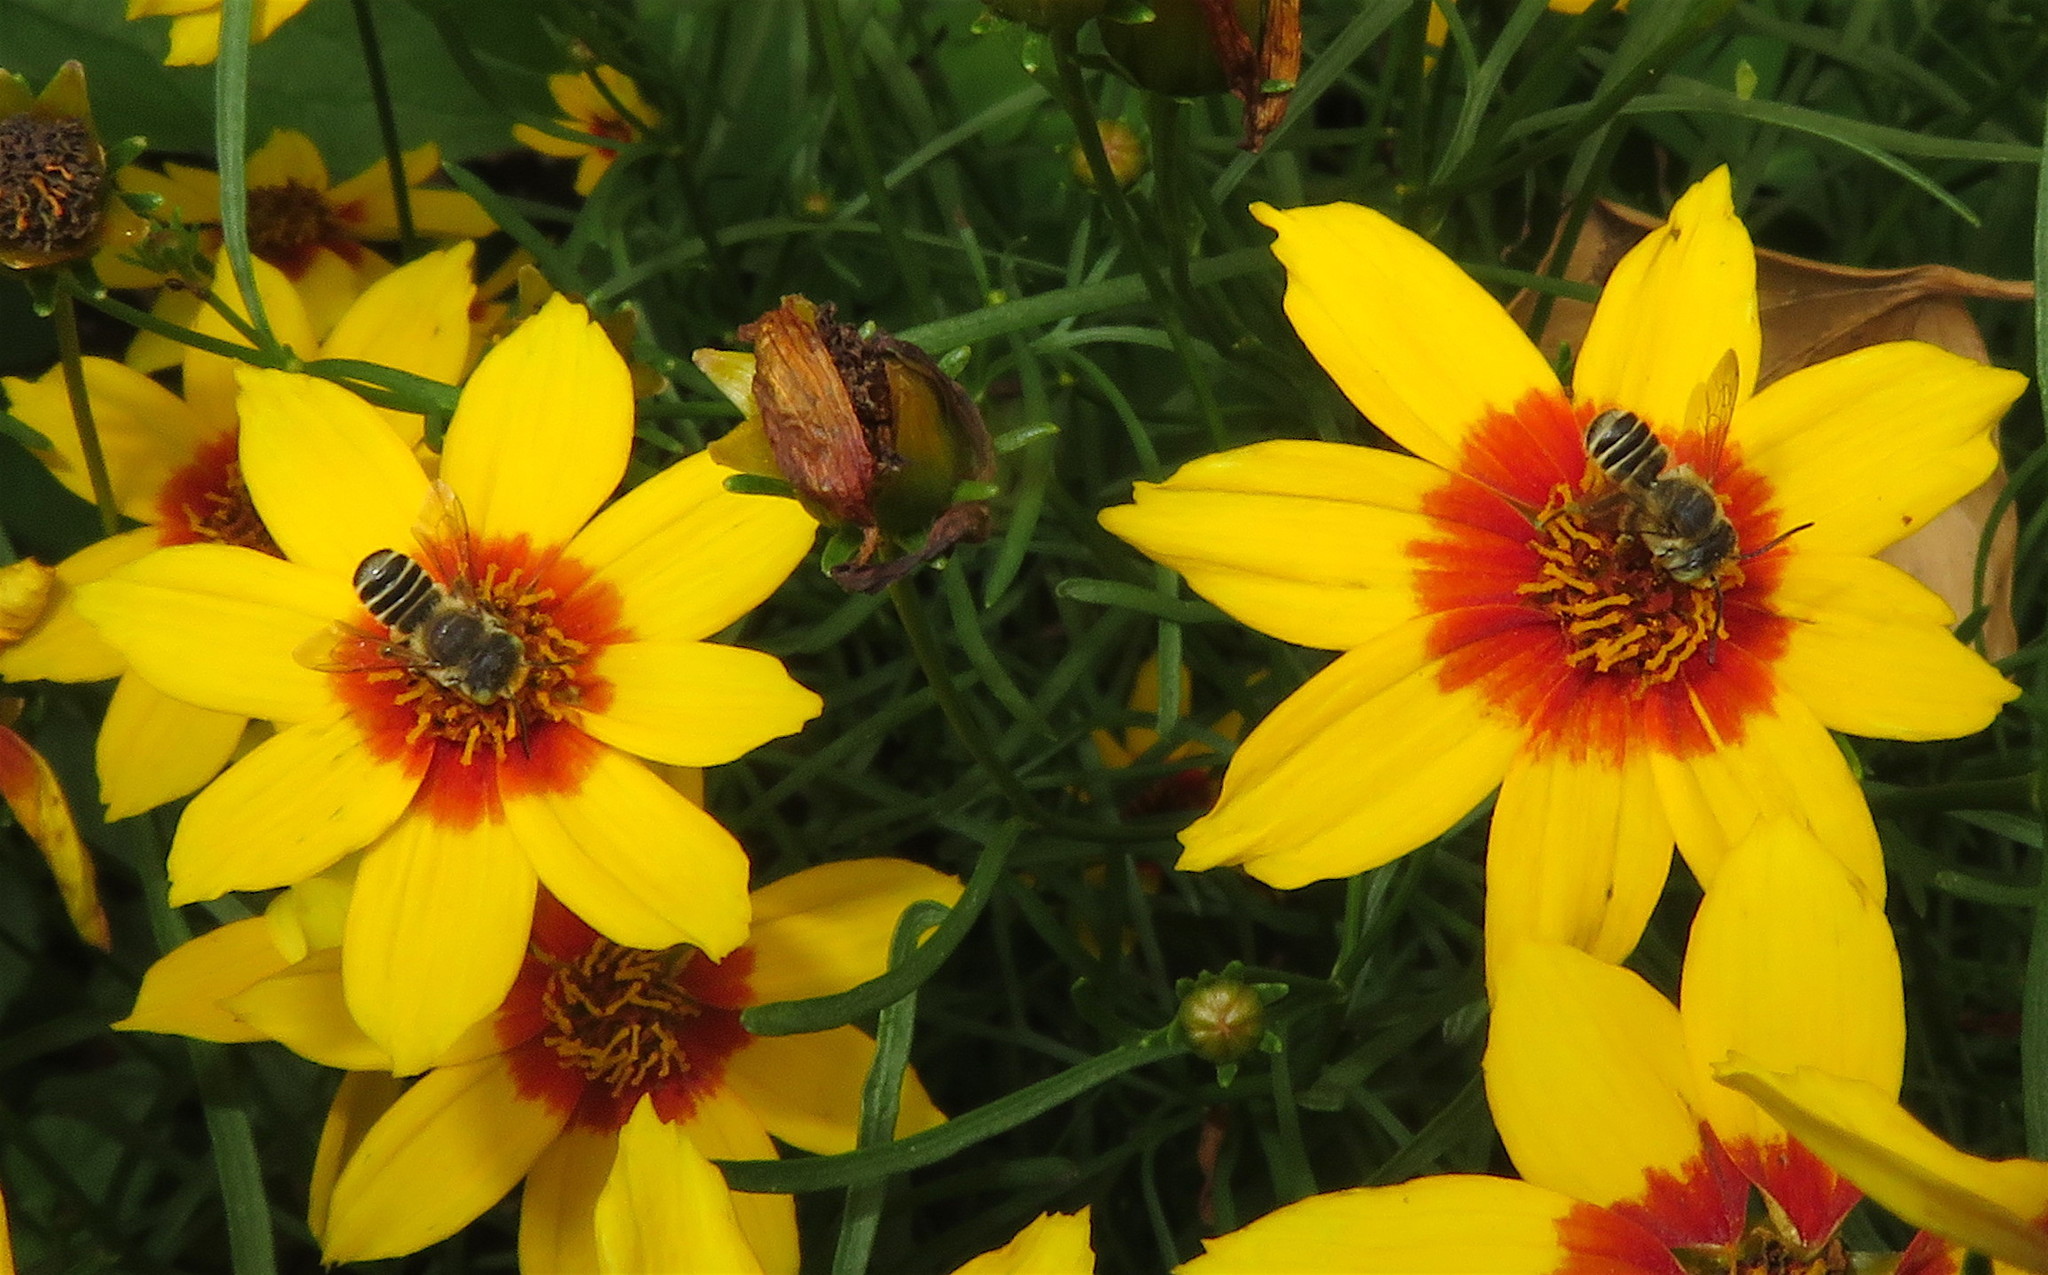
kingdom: Animalia
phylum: Arthropoda
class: Insecta
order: Hymenoptera
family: Megachilidae
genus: Megachile
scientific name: Megachile
